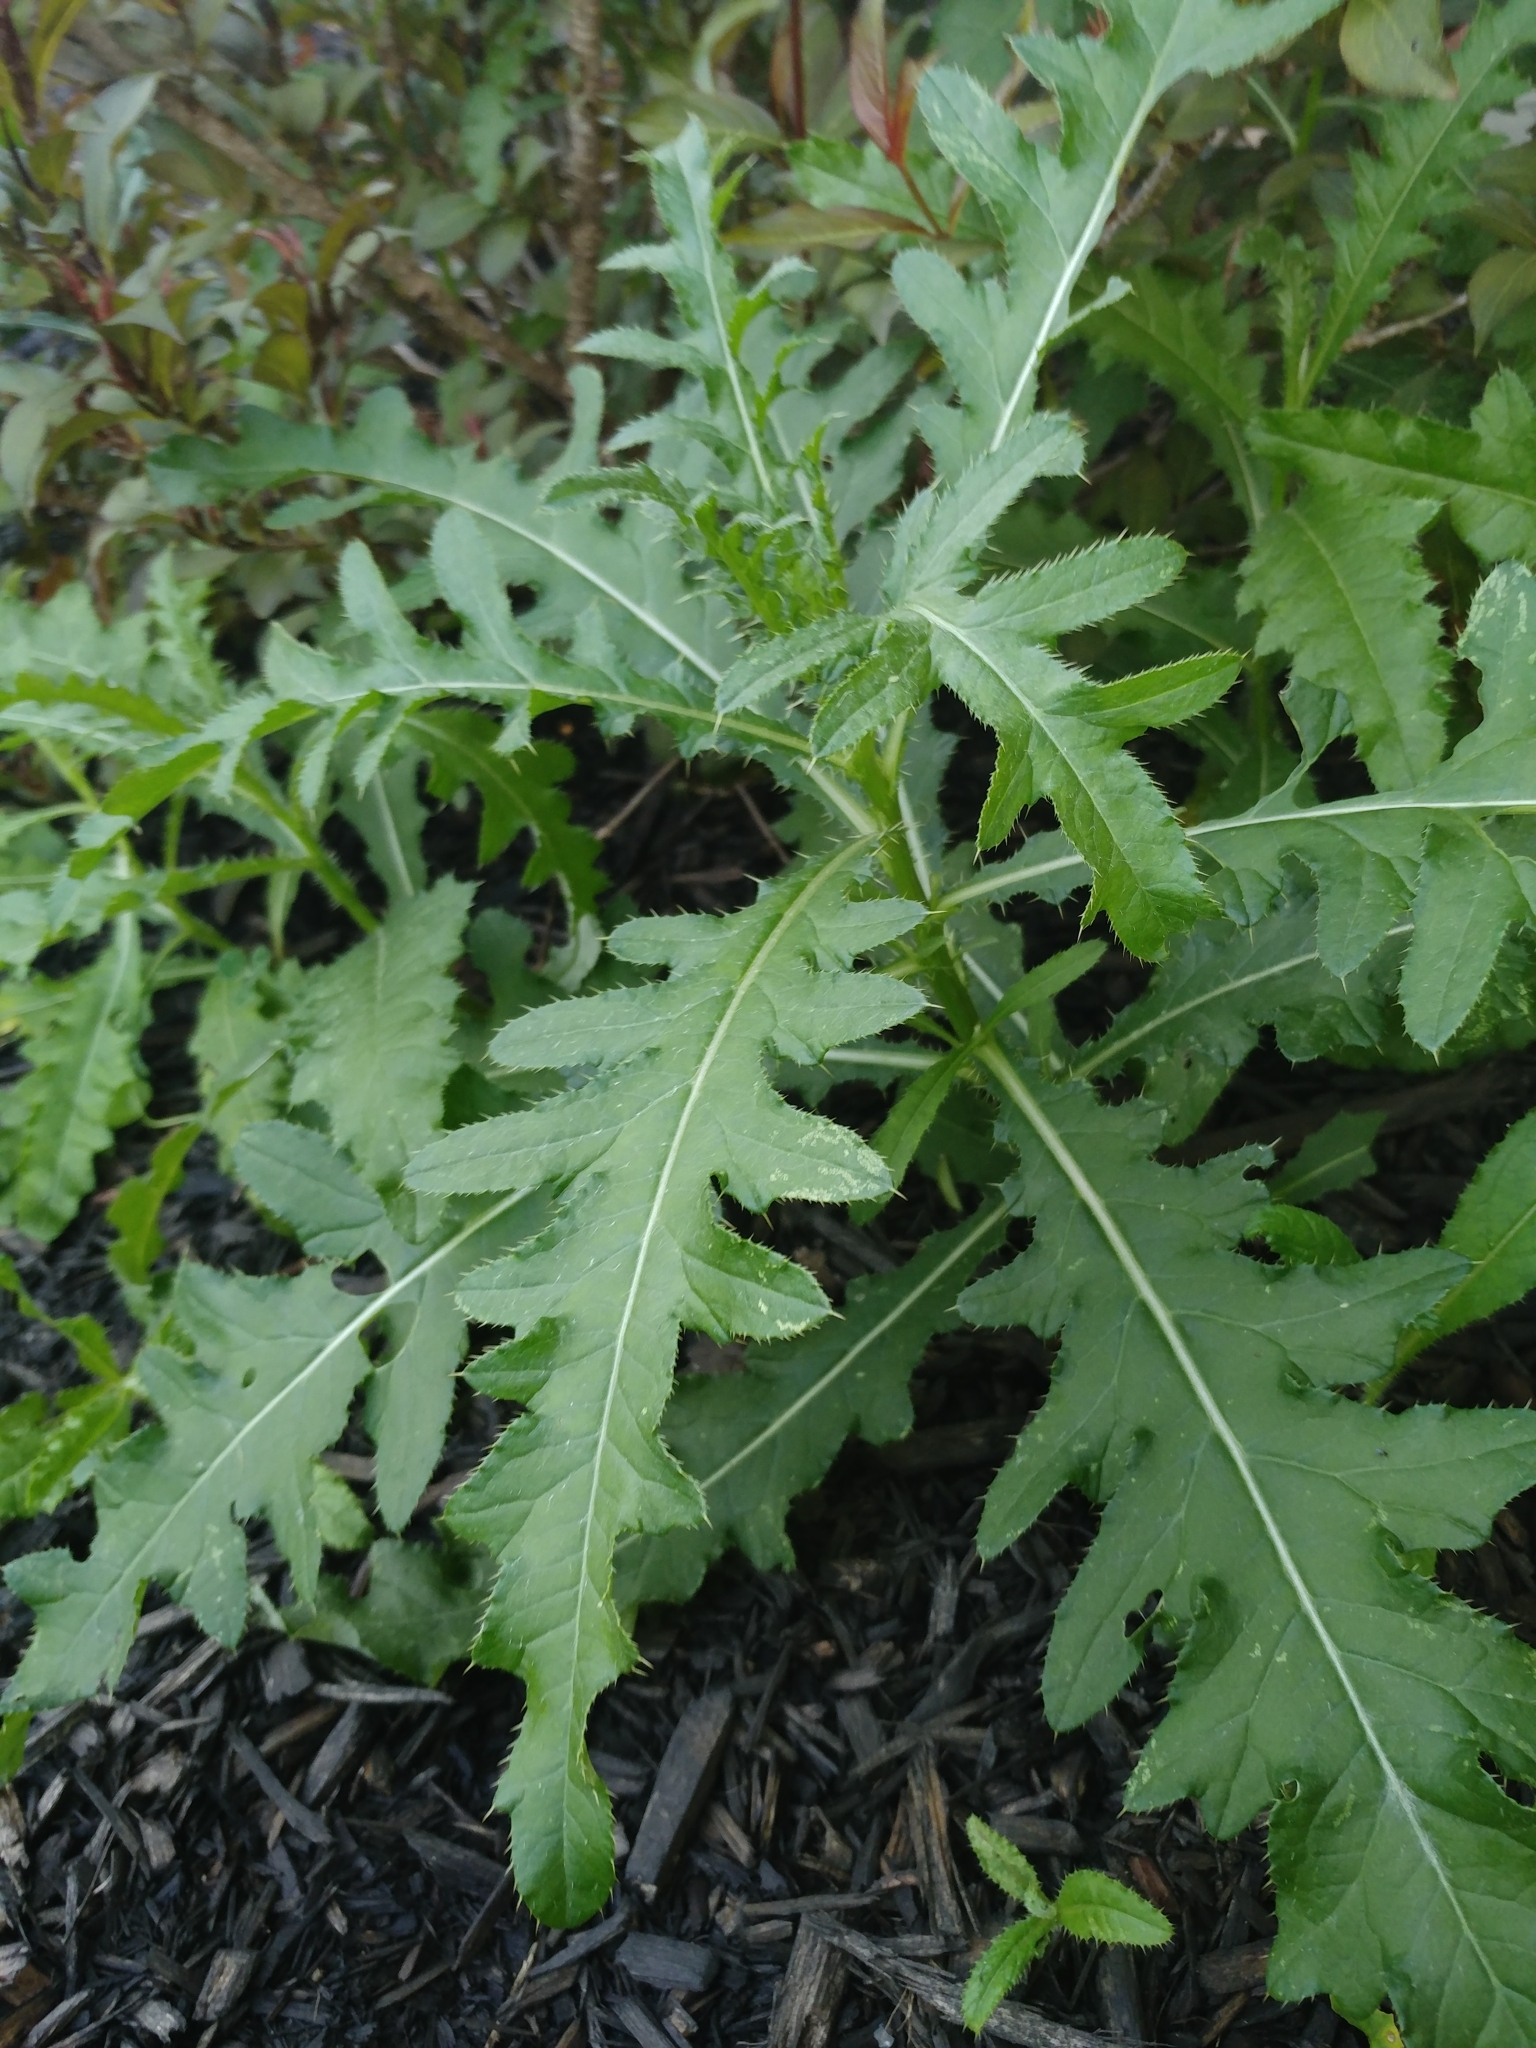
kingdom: Plantae
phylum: Tracheophyta
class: Magnoliopsida
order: Asterales
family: Asteraceae
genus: Cirsium
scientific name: Cirsium arvense
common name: Creeping thistle
